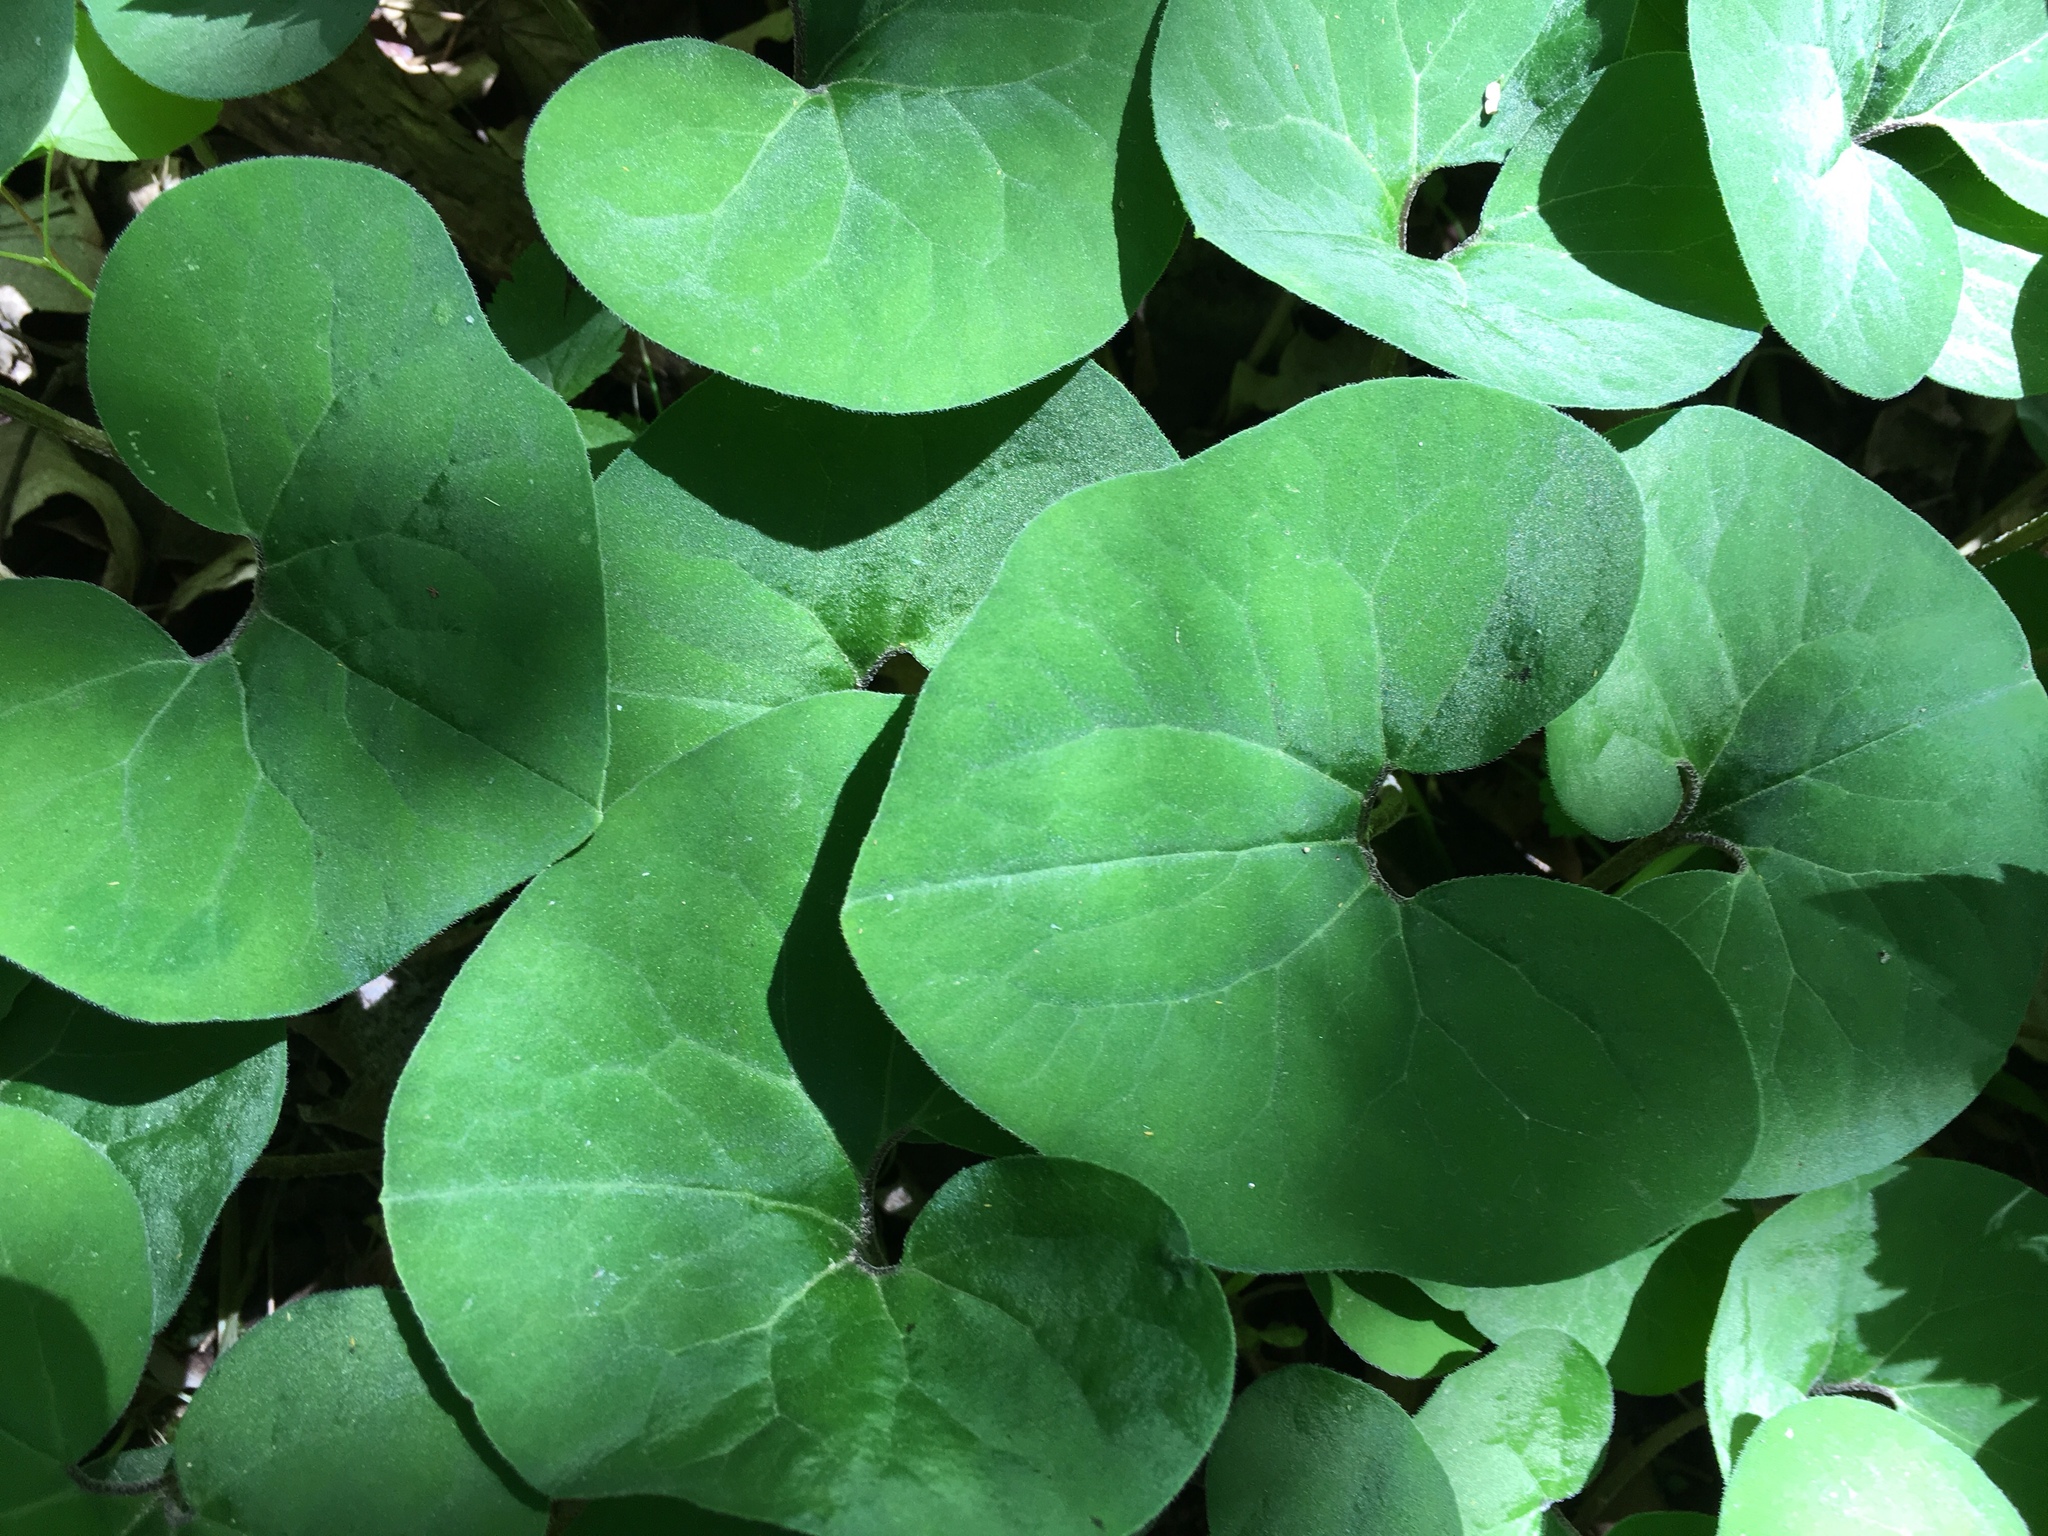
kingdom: Plantae
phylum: Tracheophyta
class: Magnoliopsida
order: Piperales
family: Aristolochiaceae
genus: Asarum
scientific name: Asarum canadense
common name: Wild ginger
